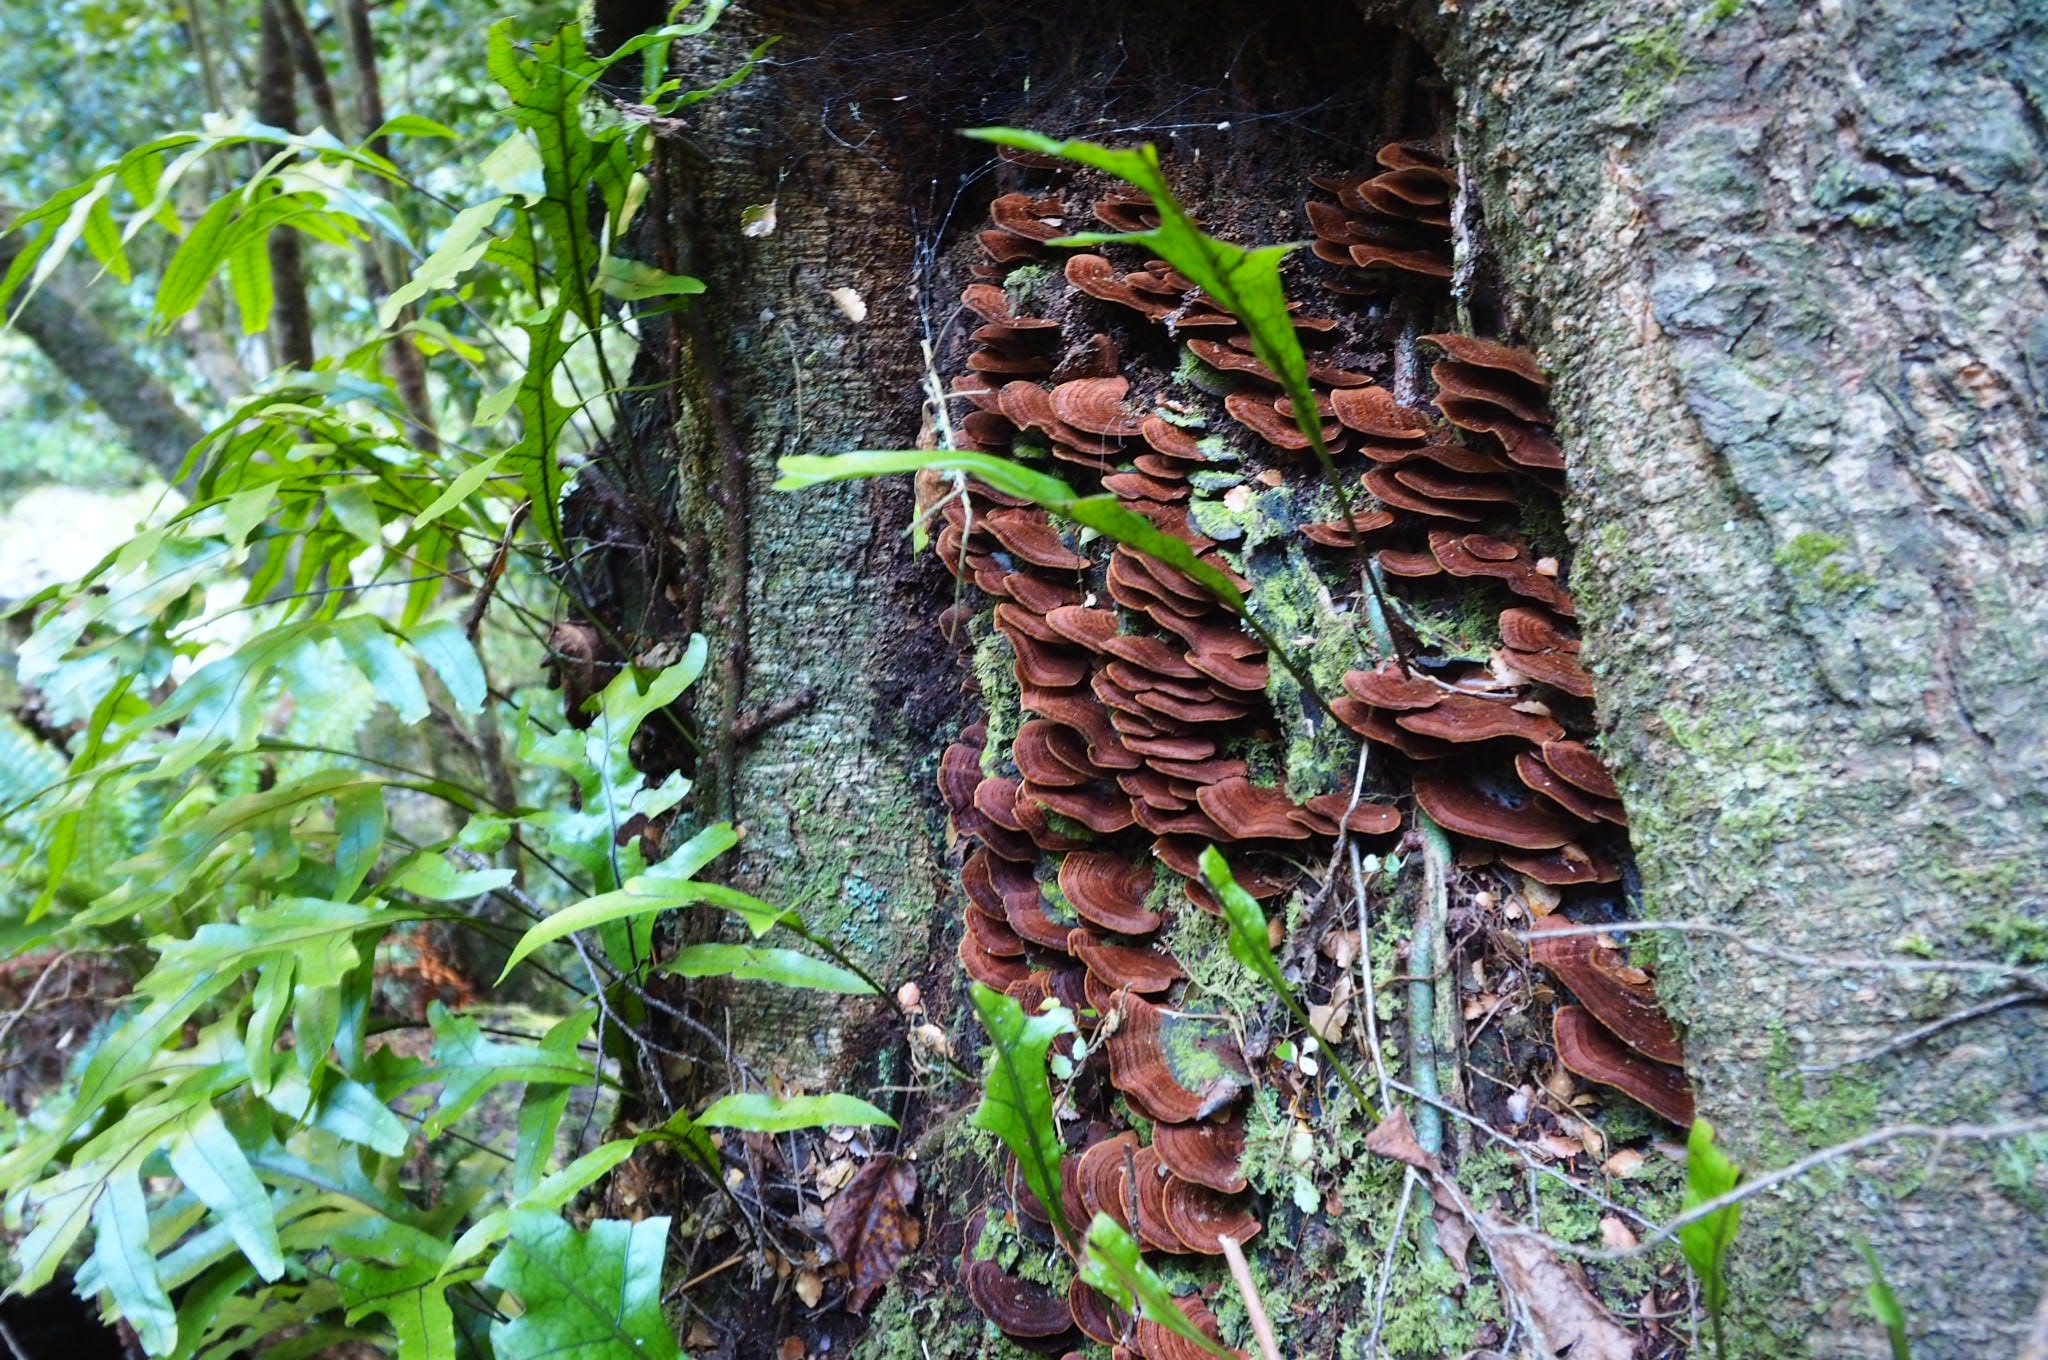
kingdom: Fungi
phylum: Basidiomycota
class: Agaricomycetes
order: Hymenochaetales
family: Hymenochaetaceae
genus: Hymenochaete
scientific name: Hymenochaete microcycla
